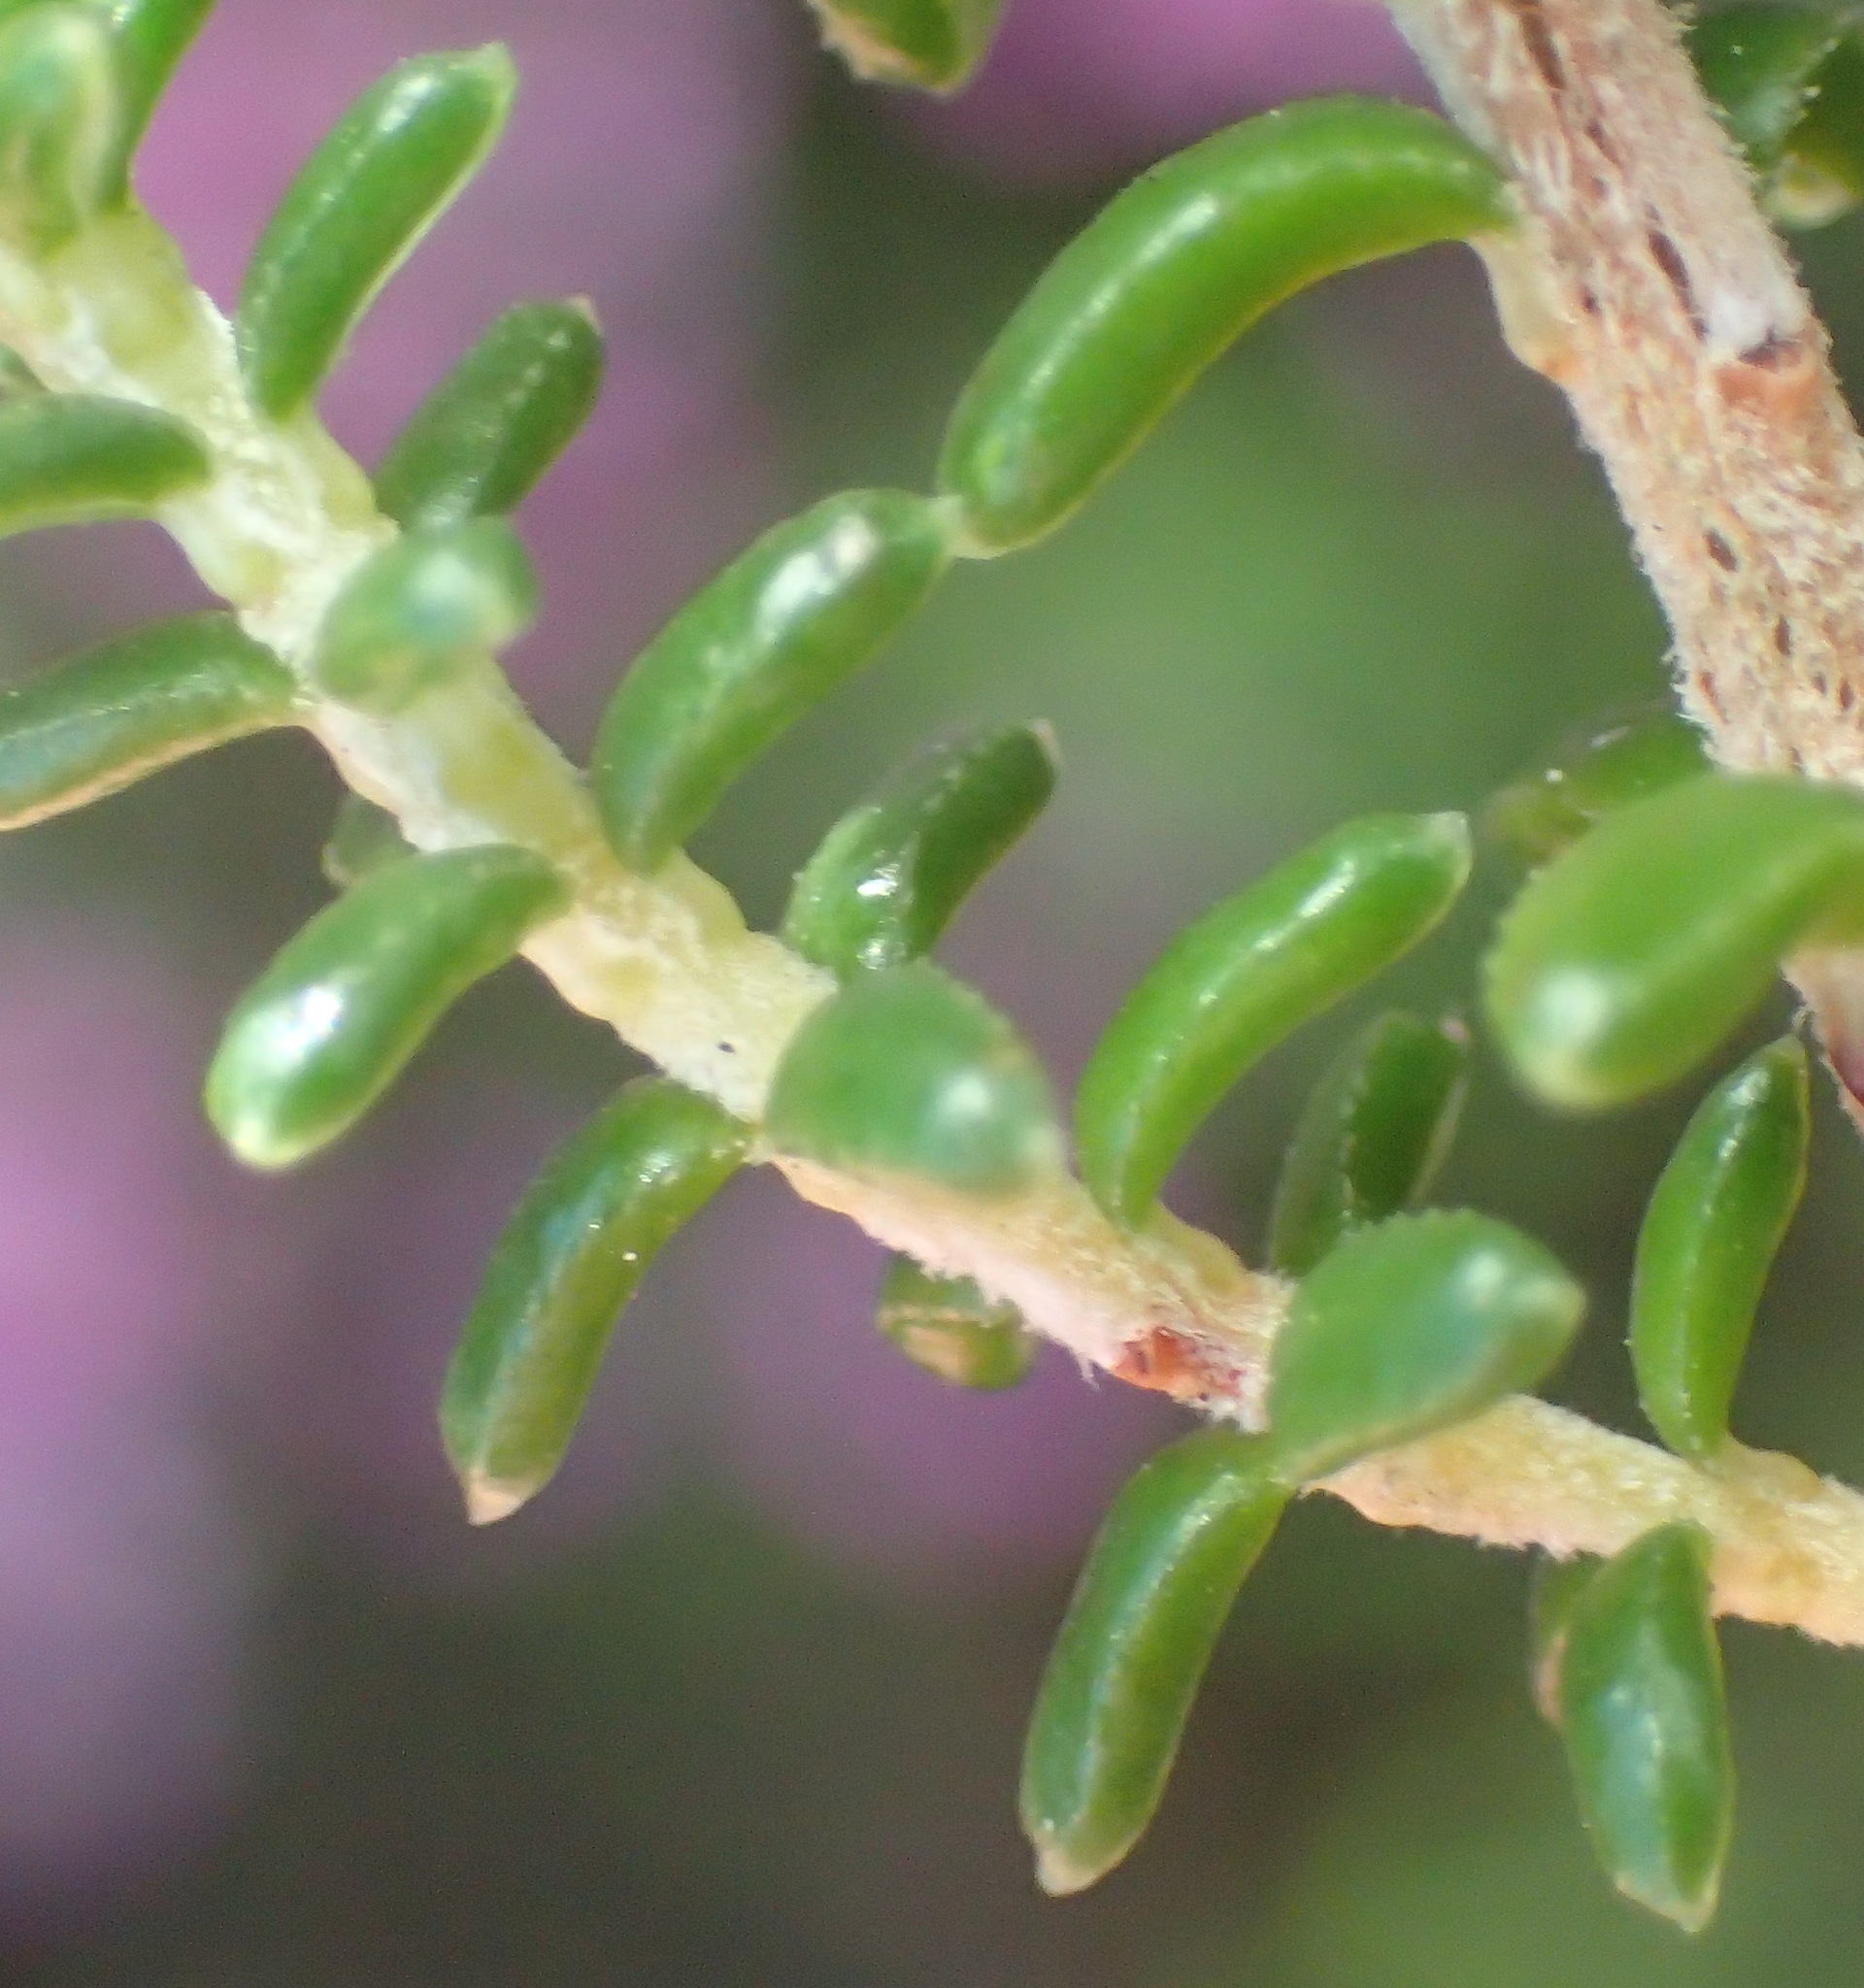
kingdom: Plantae
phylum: Tracheophyta
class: Magnoliopsida
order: Ericales
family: Ericaceae
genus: Erica
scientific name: Erica arenaria
